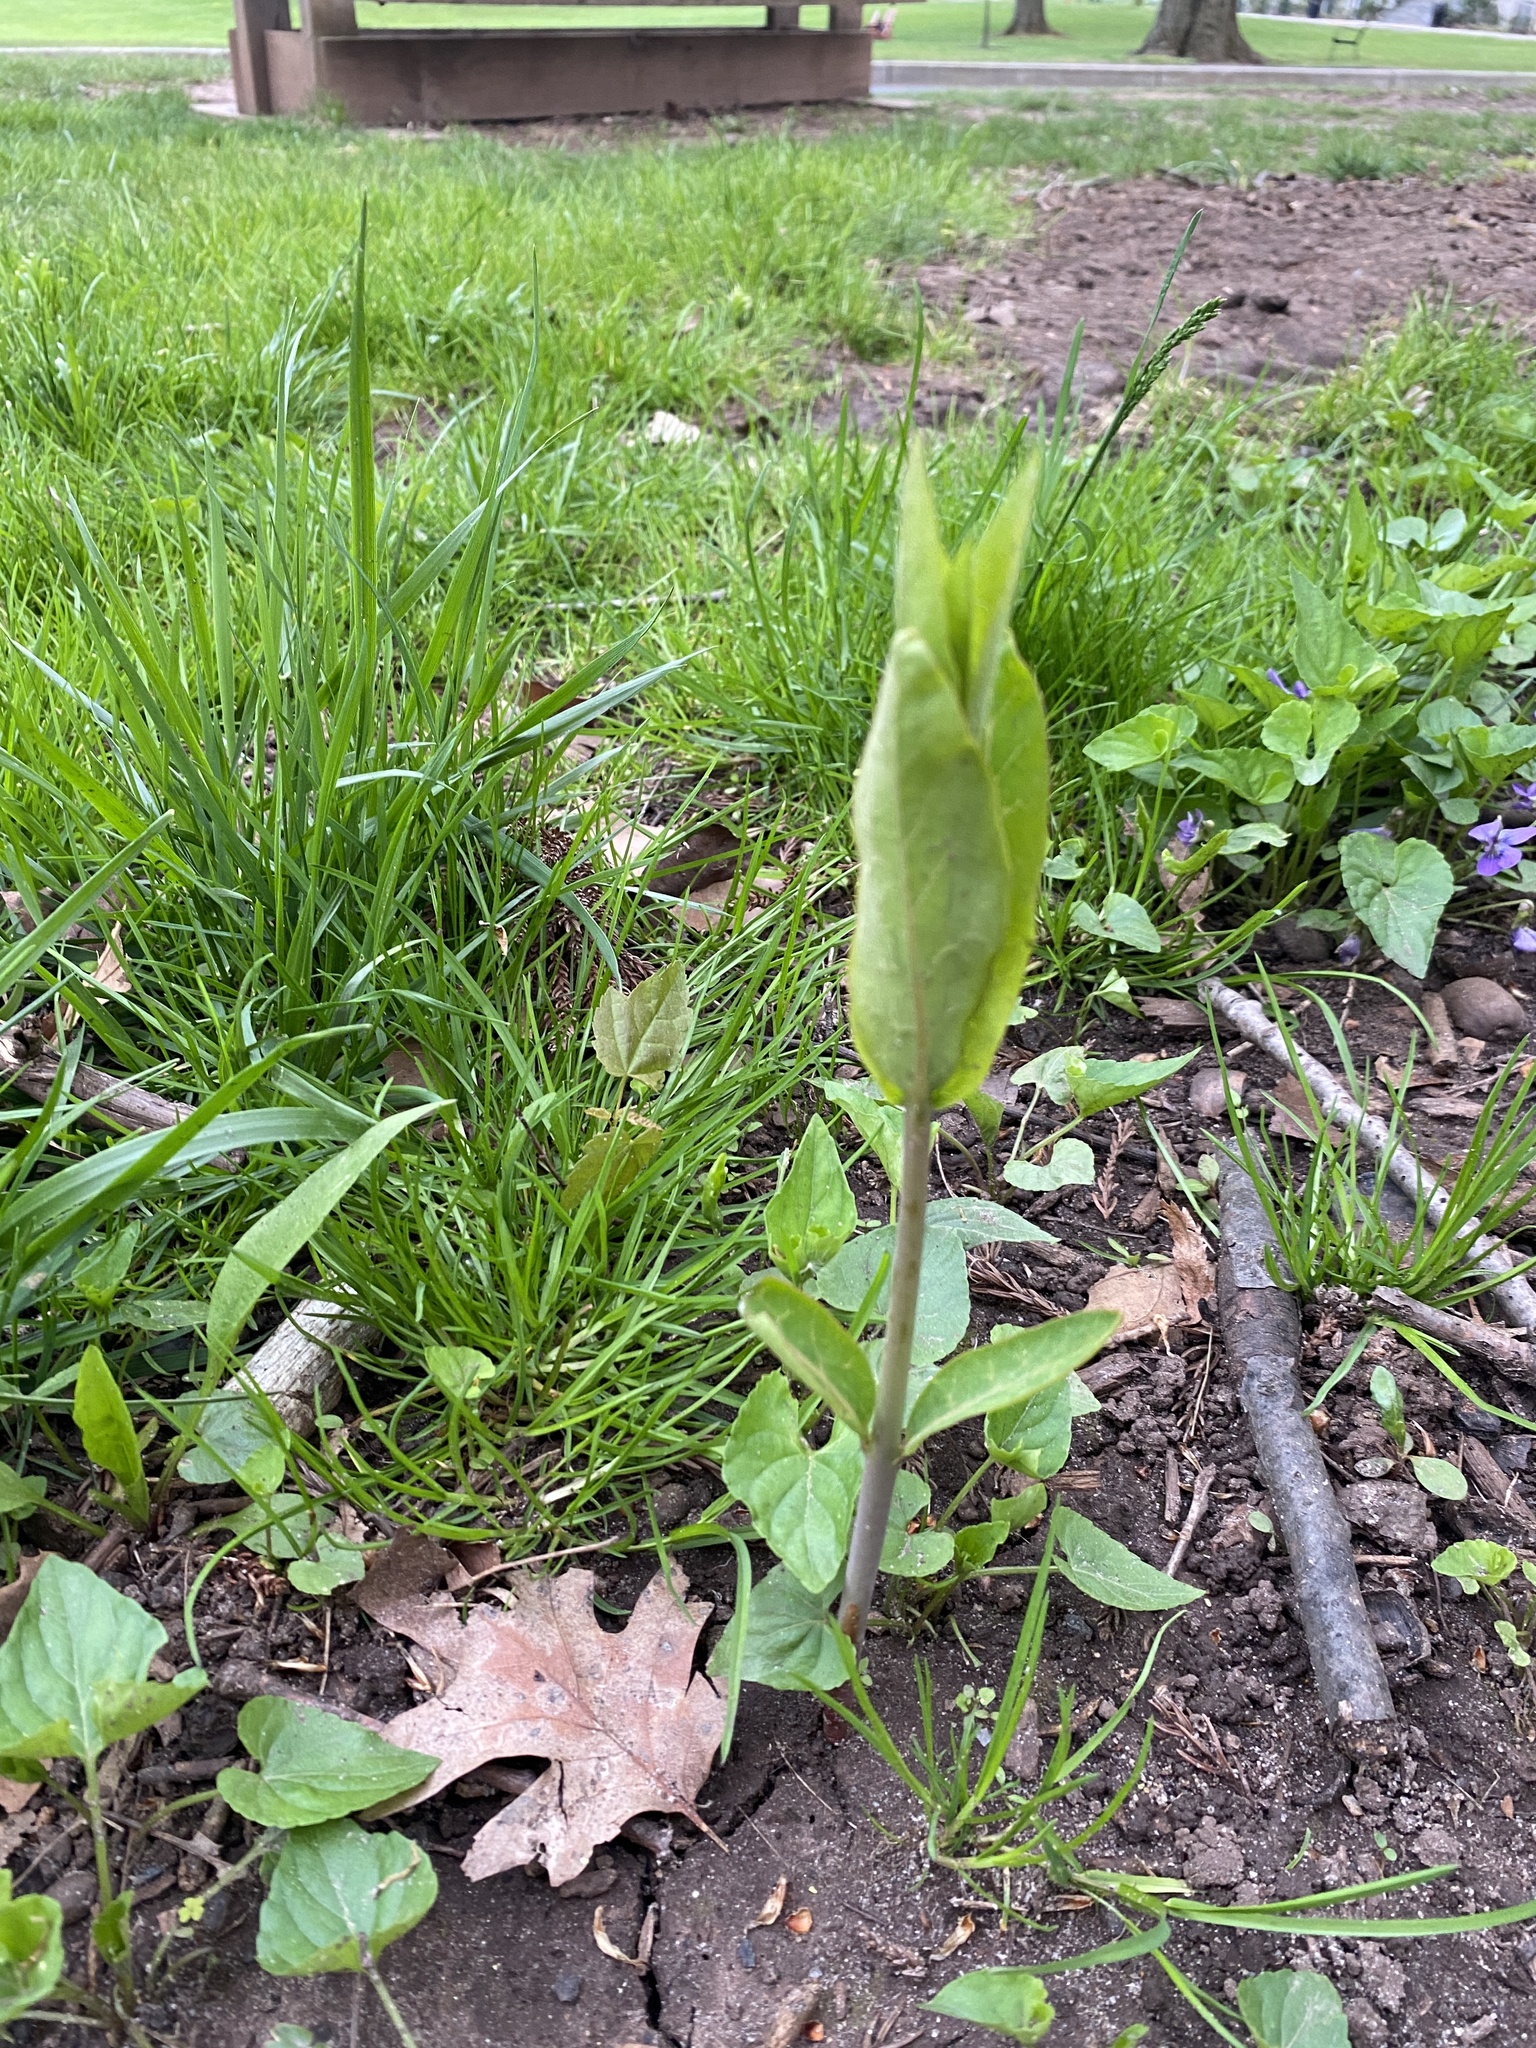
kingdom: Plantae
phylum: Tracheophyta
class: Magnoliopsida
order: Gentianales
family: Apocynaceae
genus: Apocynum
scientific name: Apocynum cannabinum
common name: Hemp dogbane
